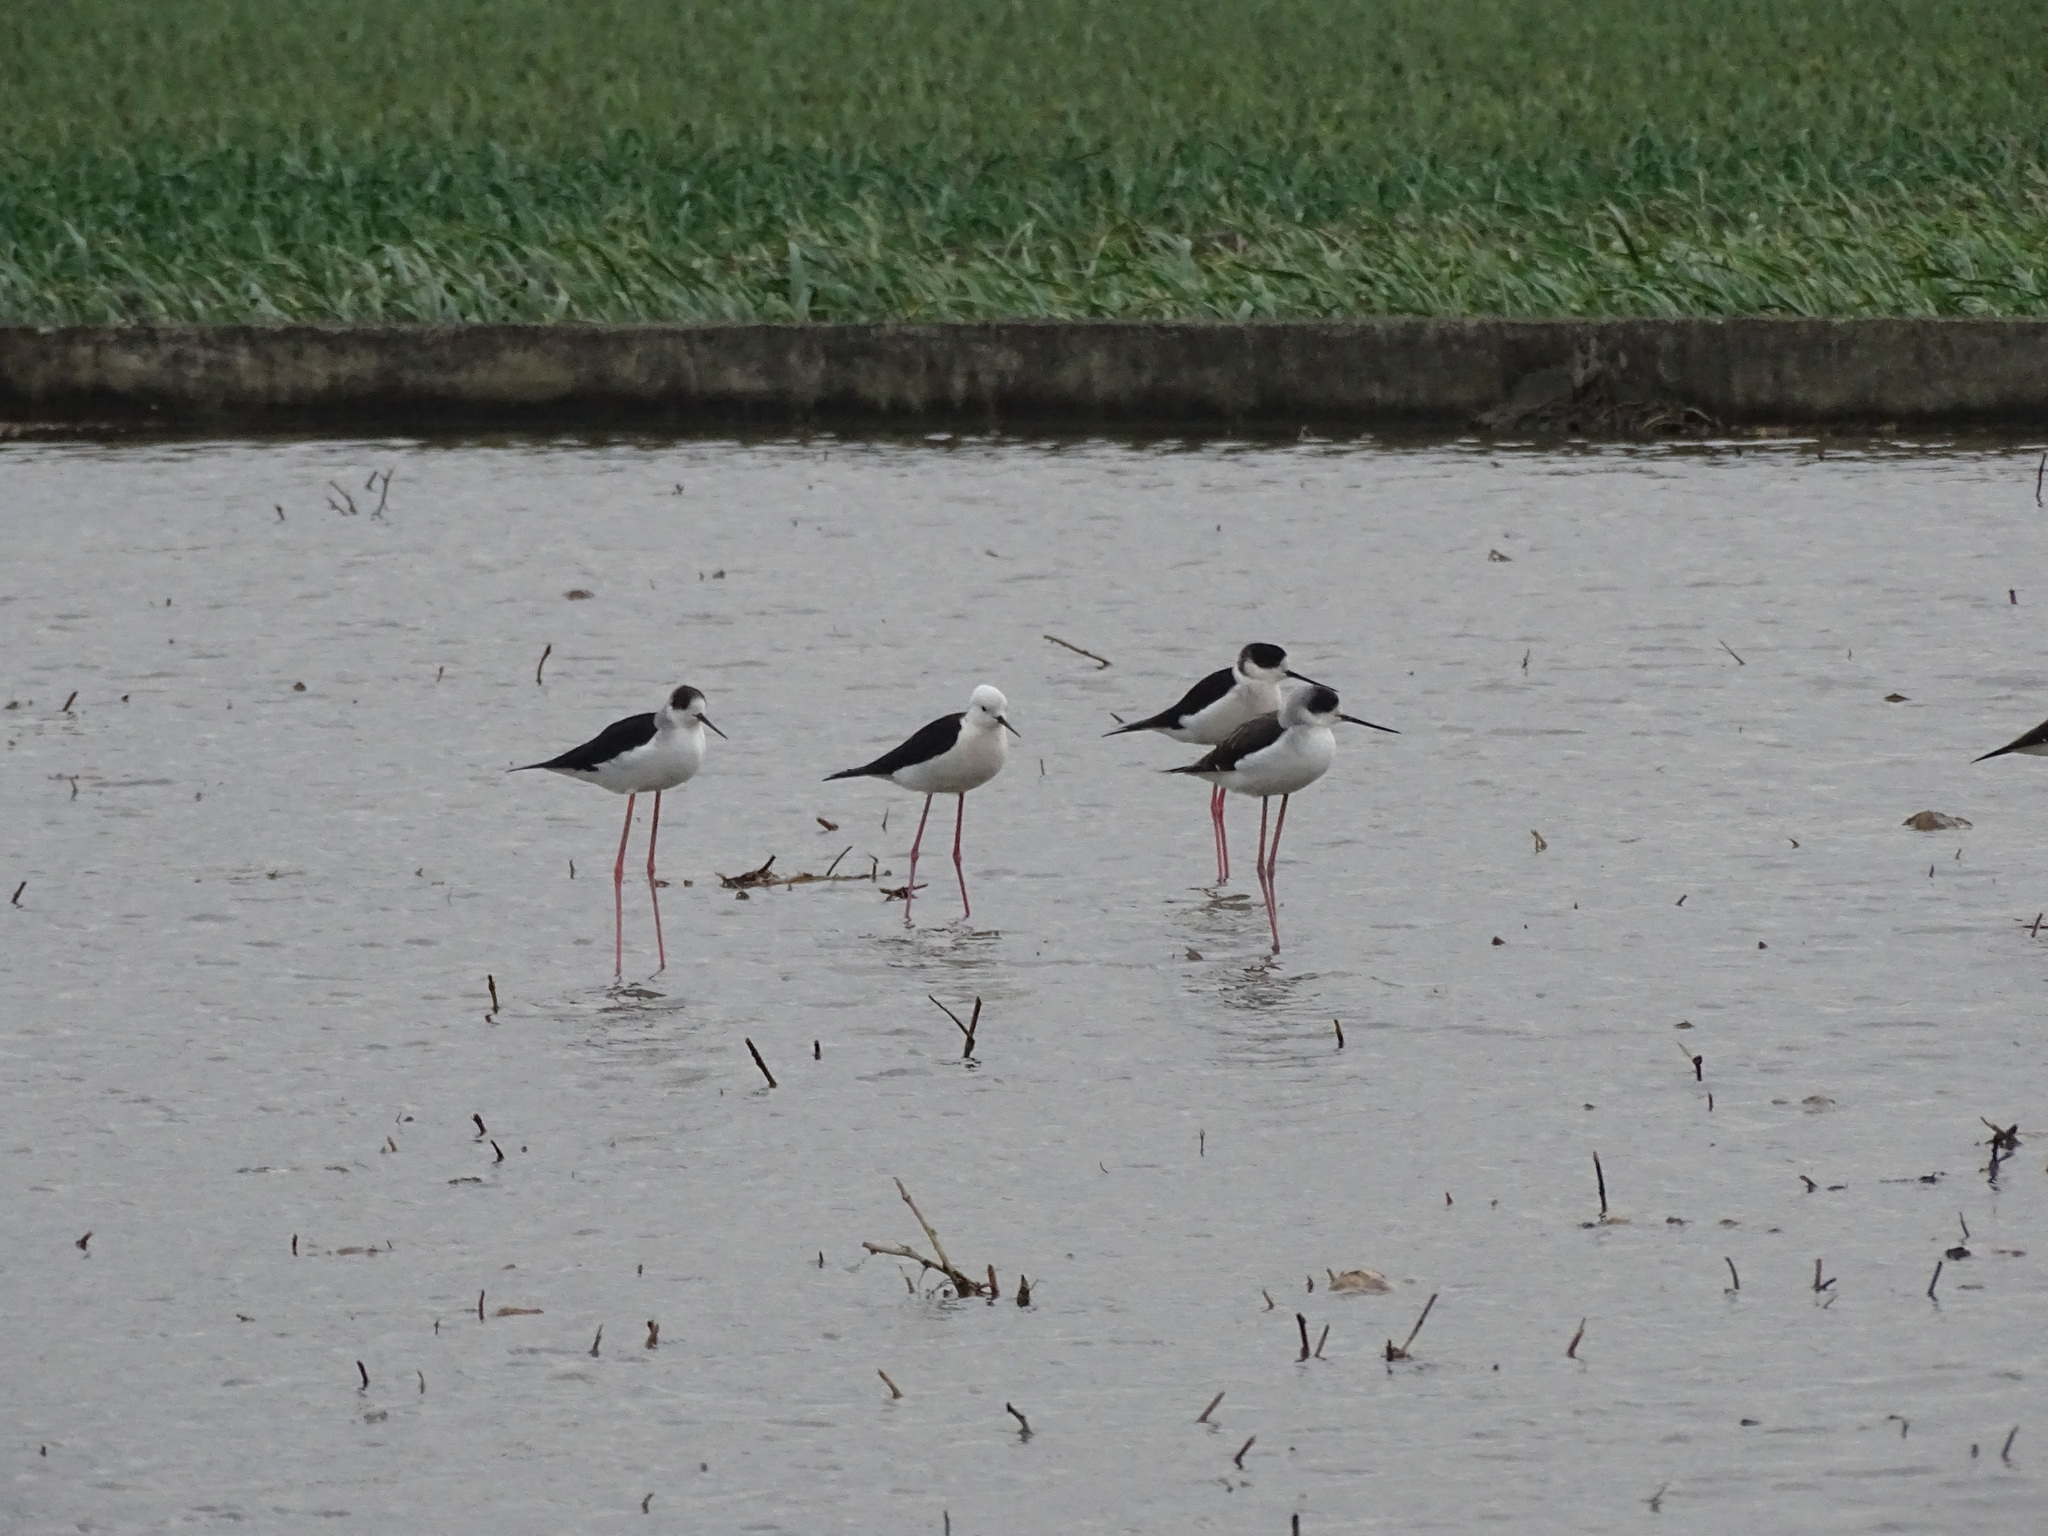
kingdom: Animalia
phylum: Chordata
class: Aves
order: Charadriiformes
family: Recurvirostridae
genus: Himantopus
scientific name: Himantopus himantopus
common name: Black-winged stilt
